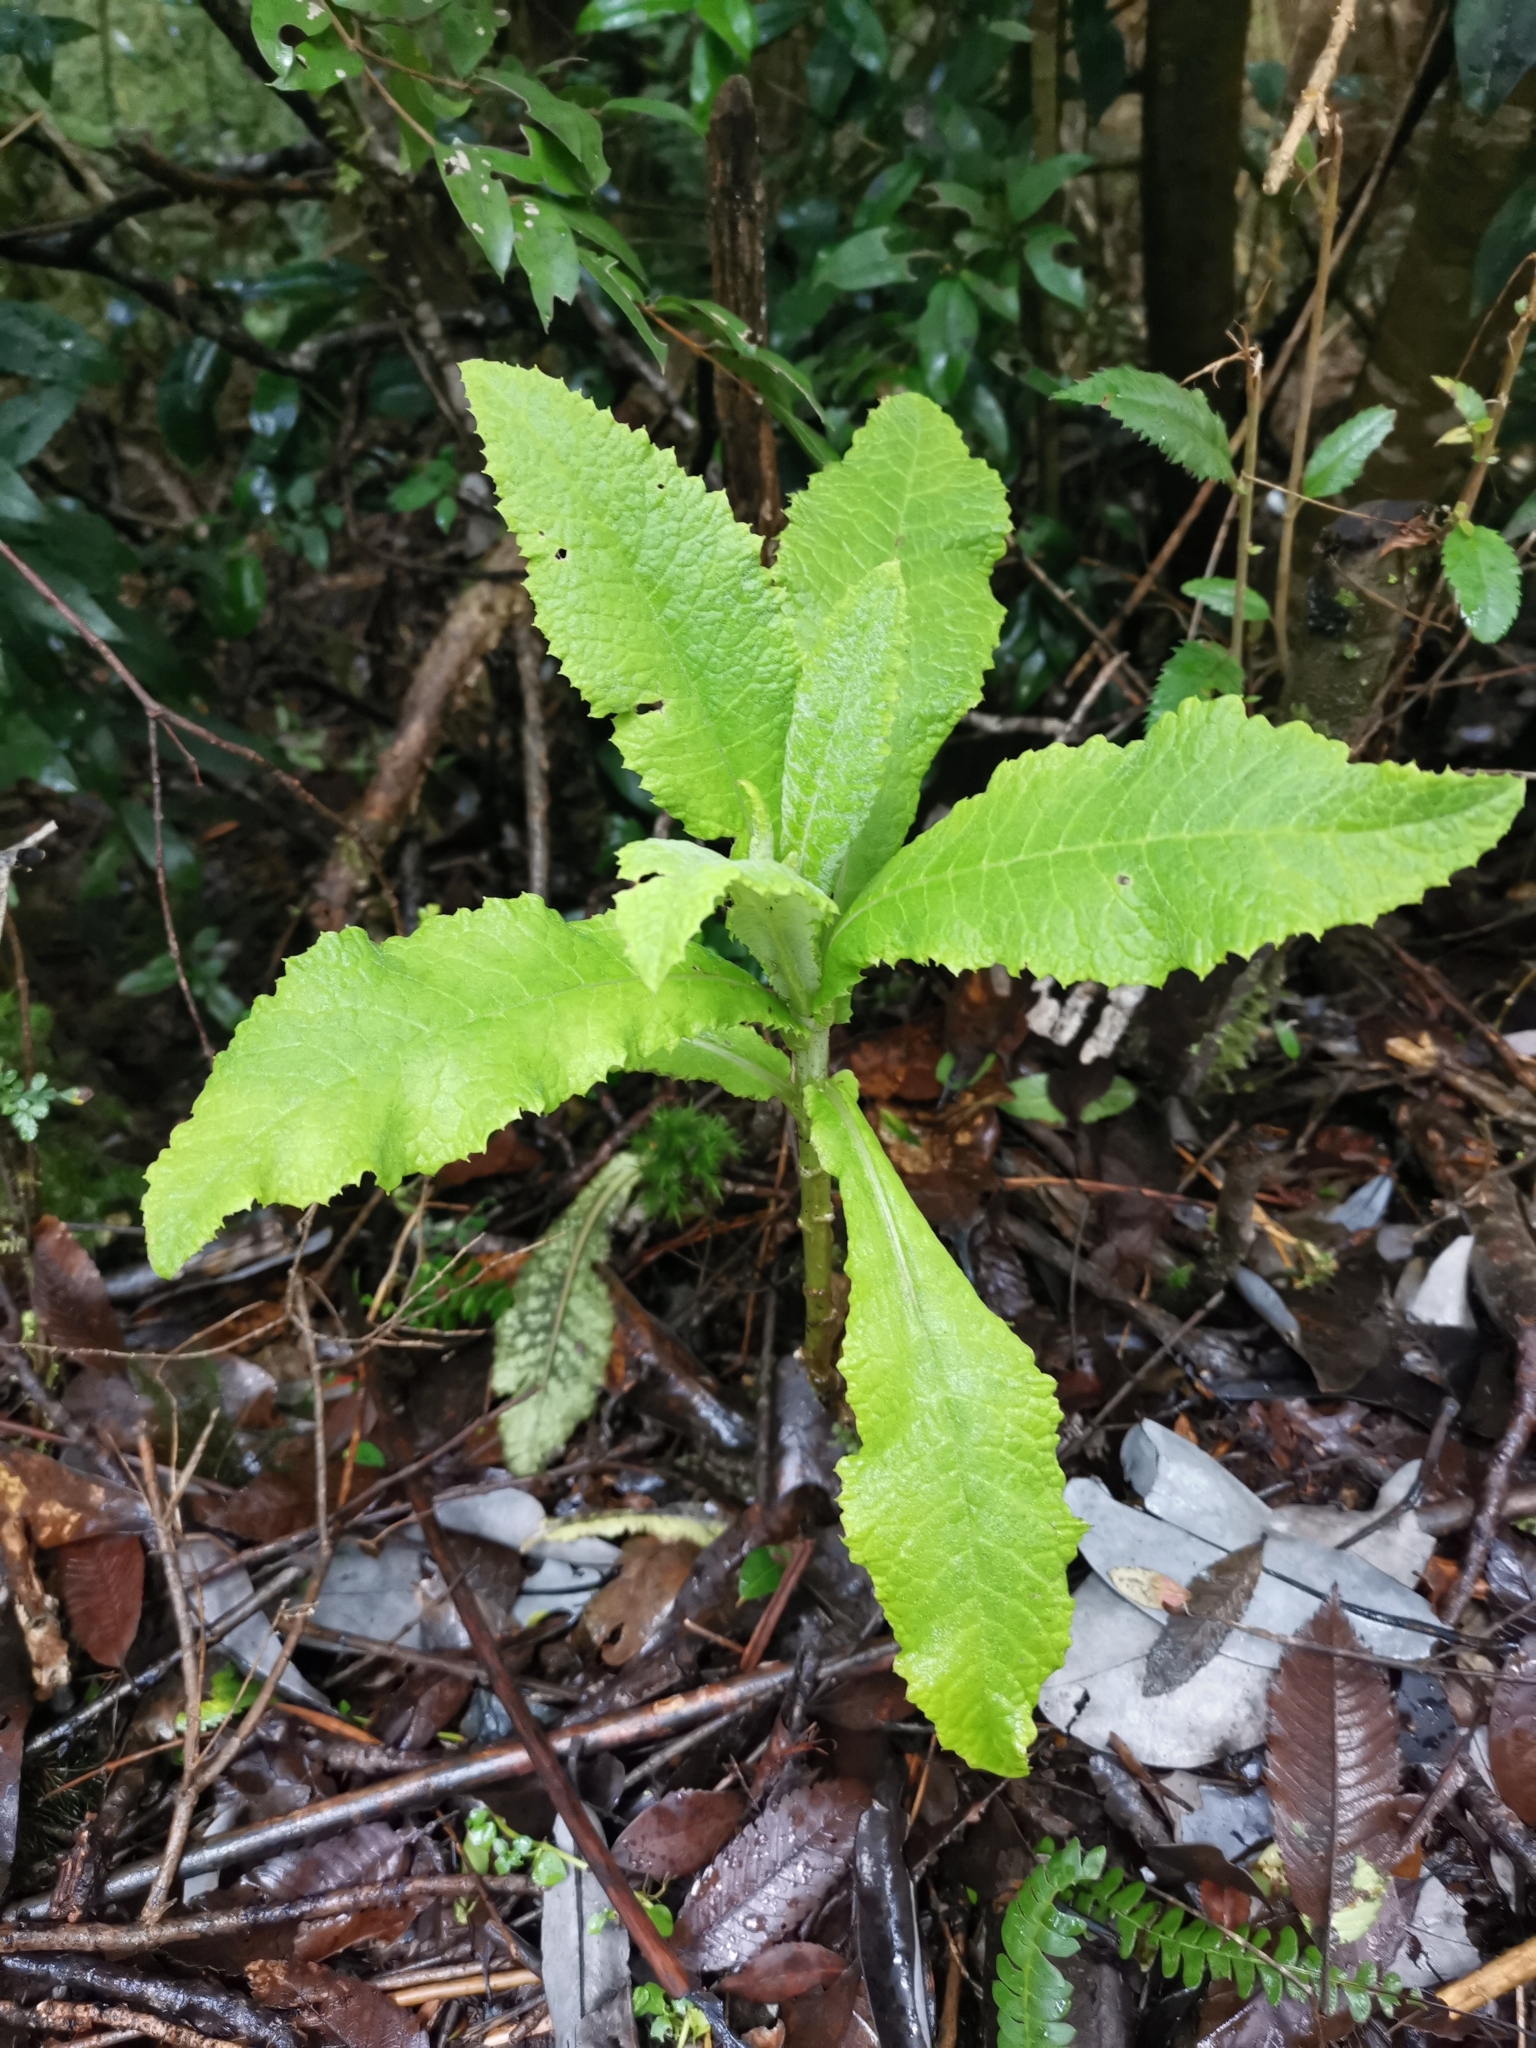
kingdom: Plantae
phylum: Tracheophyta
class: Magnoliopsida
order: Asterales
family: Asteraceae
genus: Acrisione
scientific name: Acrisione cymosa
